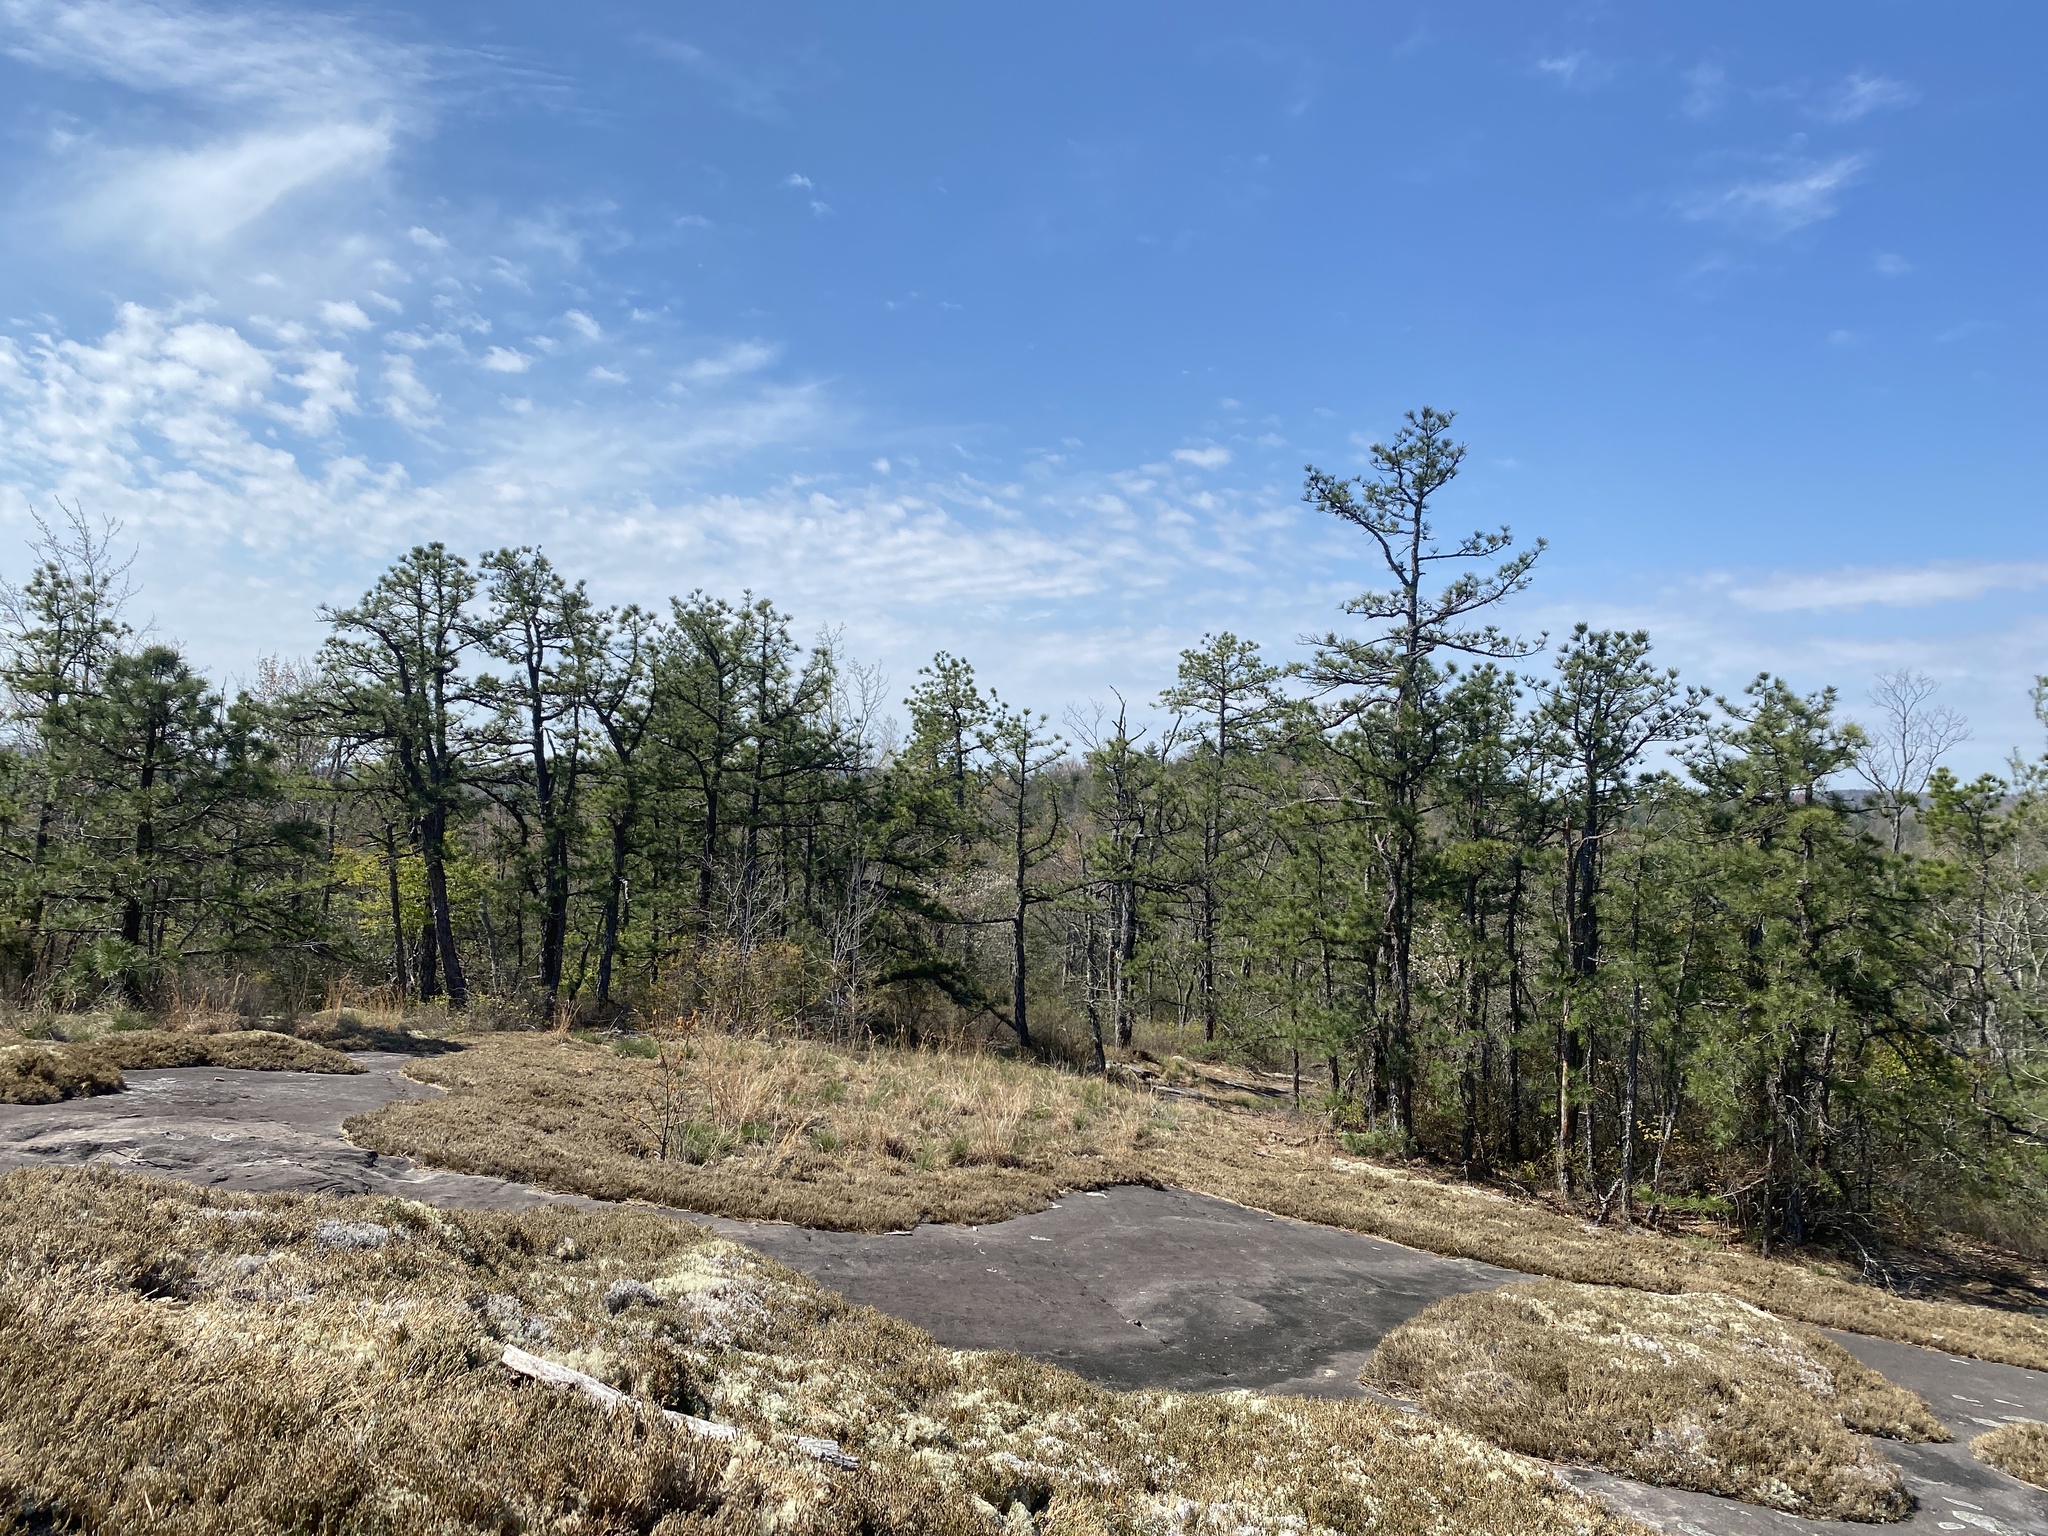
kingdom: Plantae
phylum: Tracheophyta
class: Pinopsida
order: Pinales
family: Pinaceae
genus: Pinus
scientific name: Pinus rigida
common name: Pitch pine
